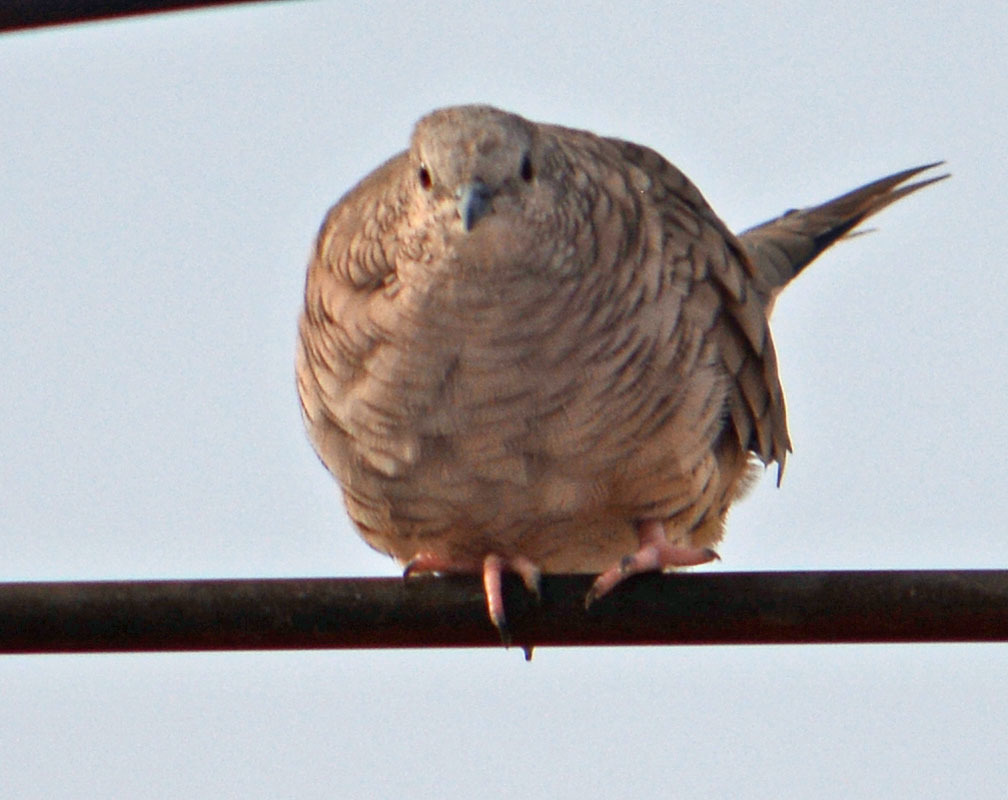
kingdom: Animalia
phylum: Chordata
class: Aves
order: Columbiformes
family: Columbidae
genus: Columbina
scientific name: Columbina inca
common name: Inca dove
